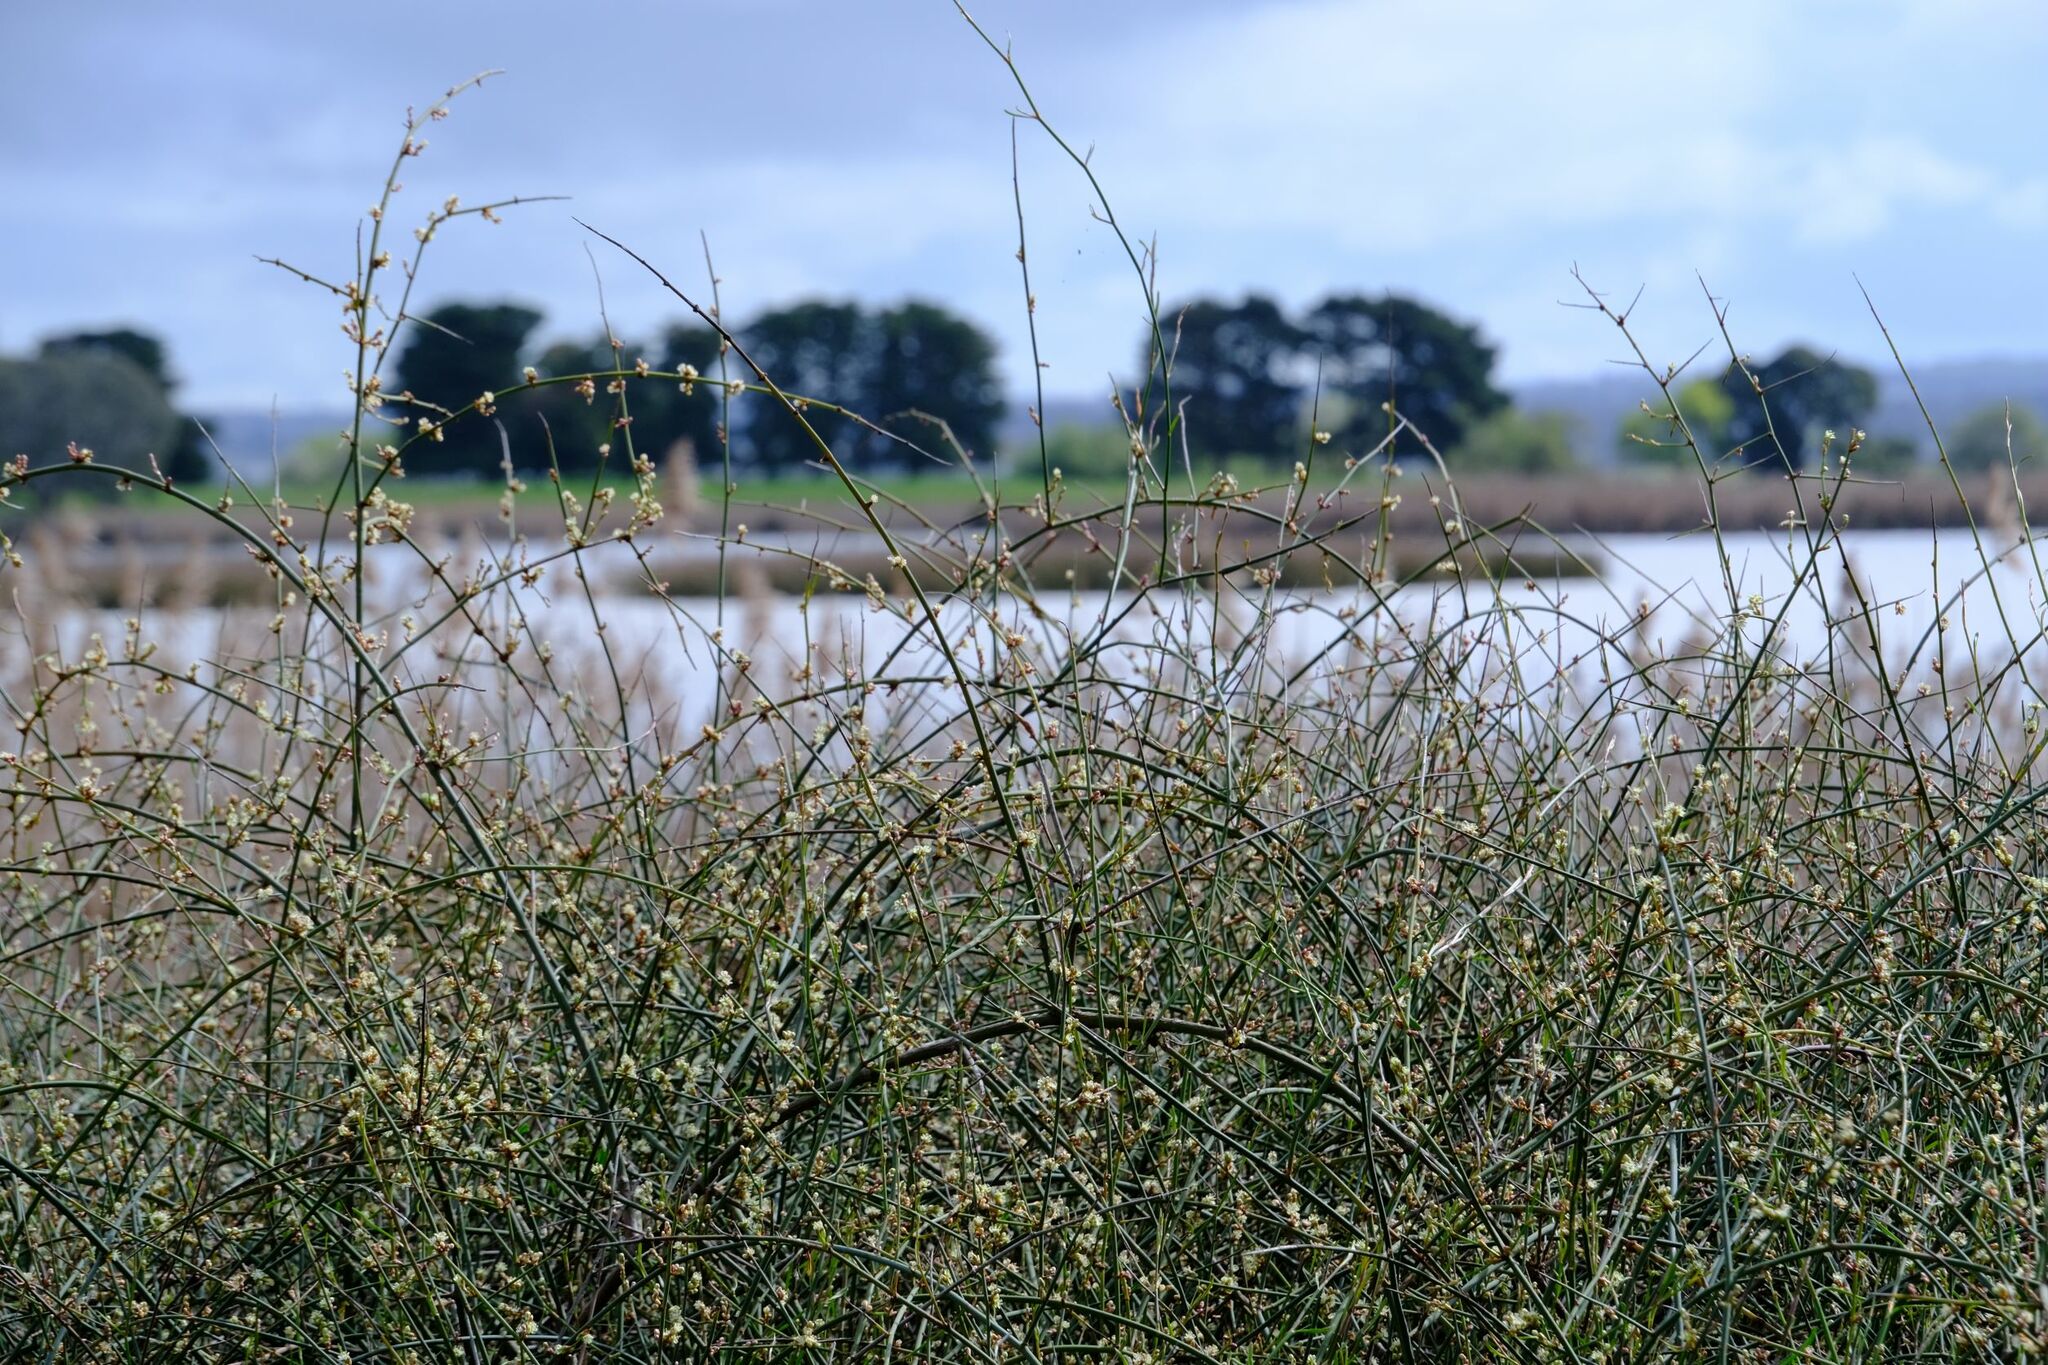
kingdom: Plantae
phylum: Tracheophyta
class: Magnoliopsida
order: Caryophyllales
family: Polygonaceae
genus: Duma
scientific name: Duma florulenta
